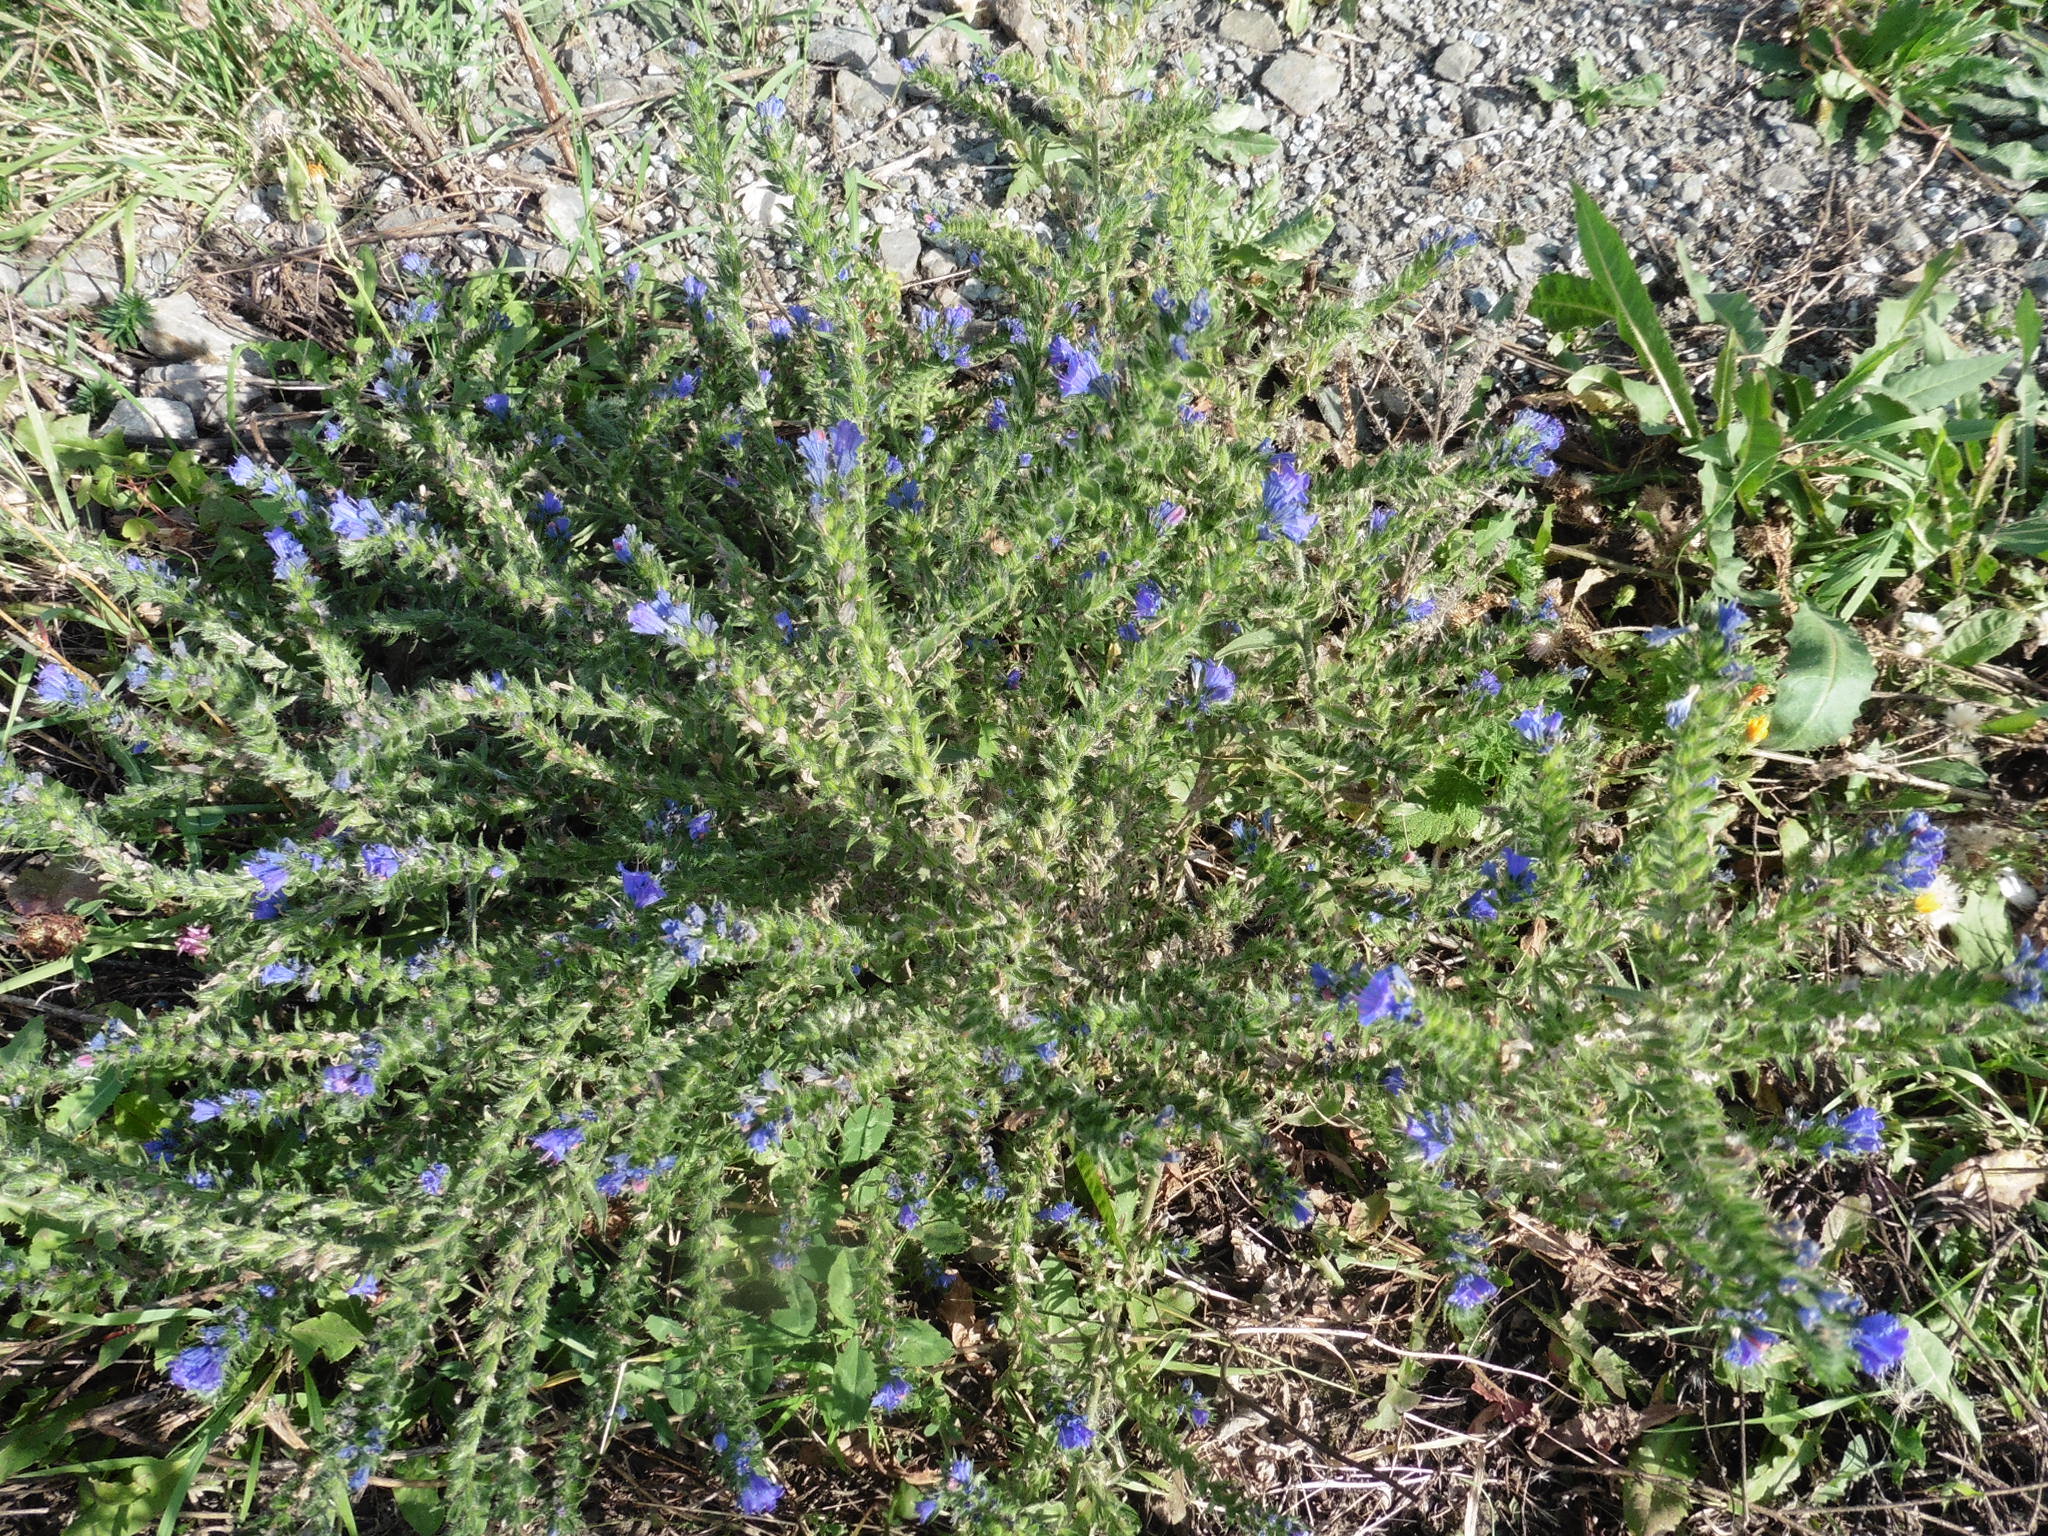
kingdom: Plantae
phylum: Tracheophyta
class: Magnoliopsida
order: Boraginales
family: Boraginaceae
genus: Echium
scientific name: Echium vulgare
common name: Common viper's bugloss
